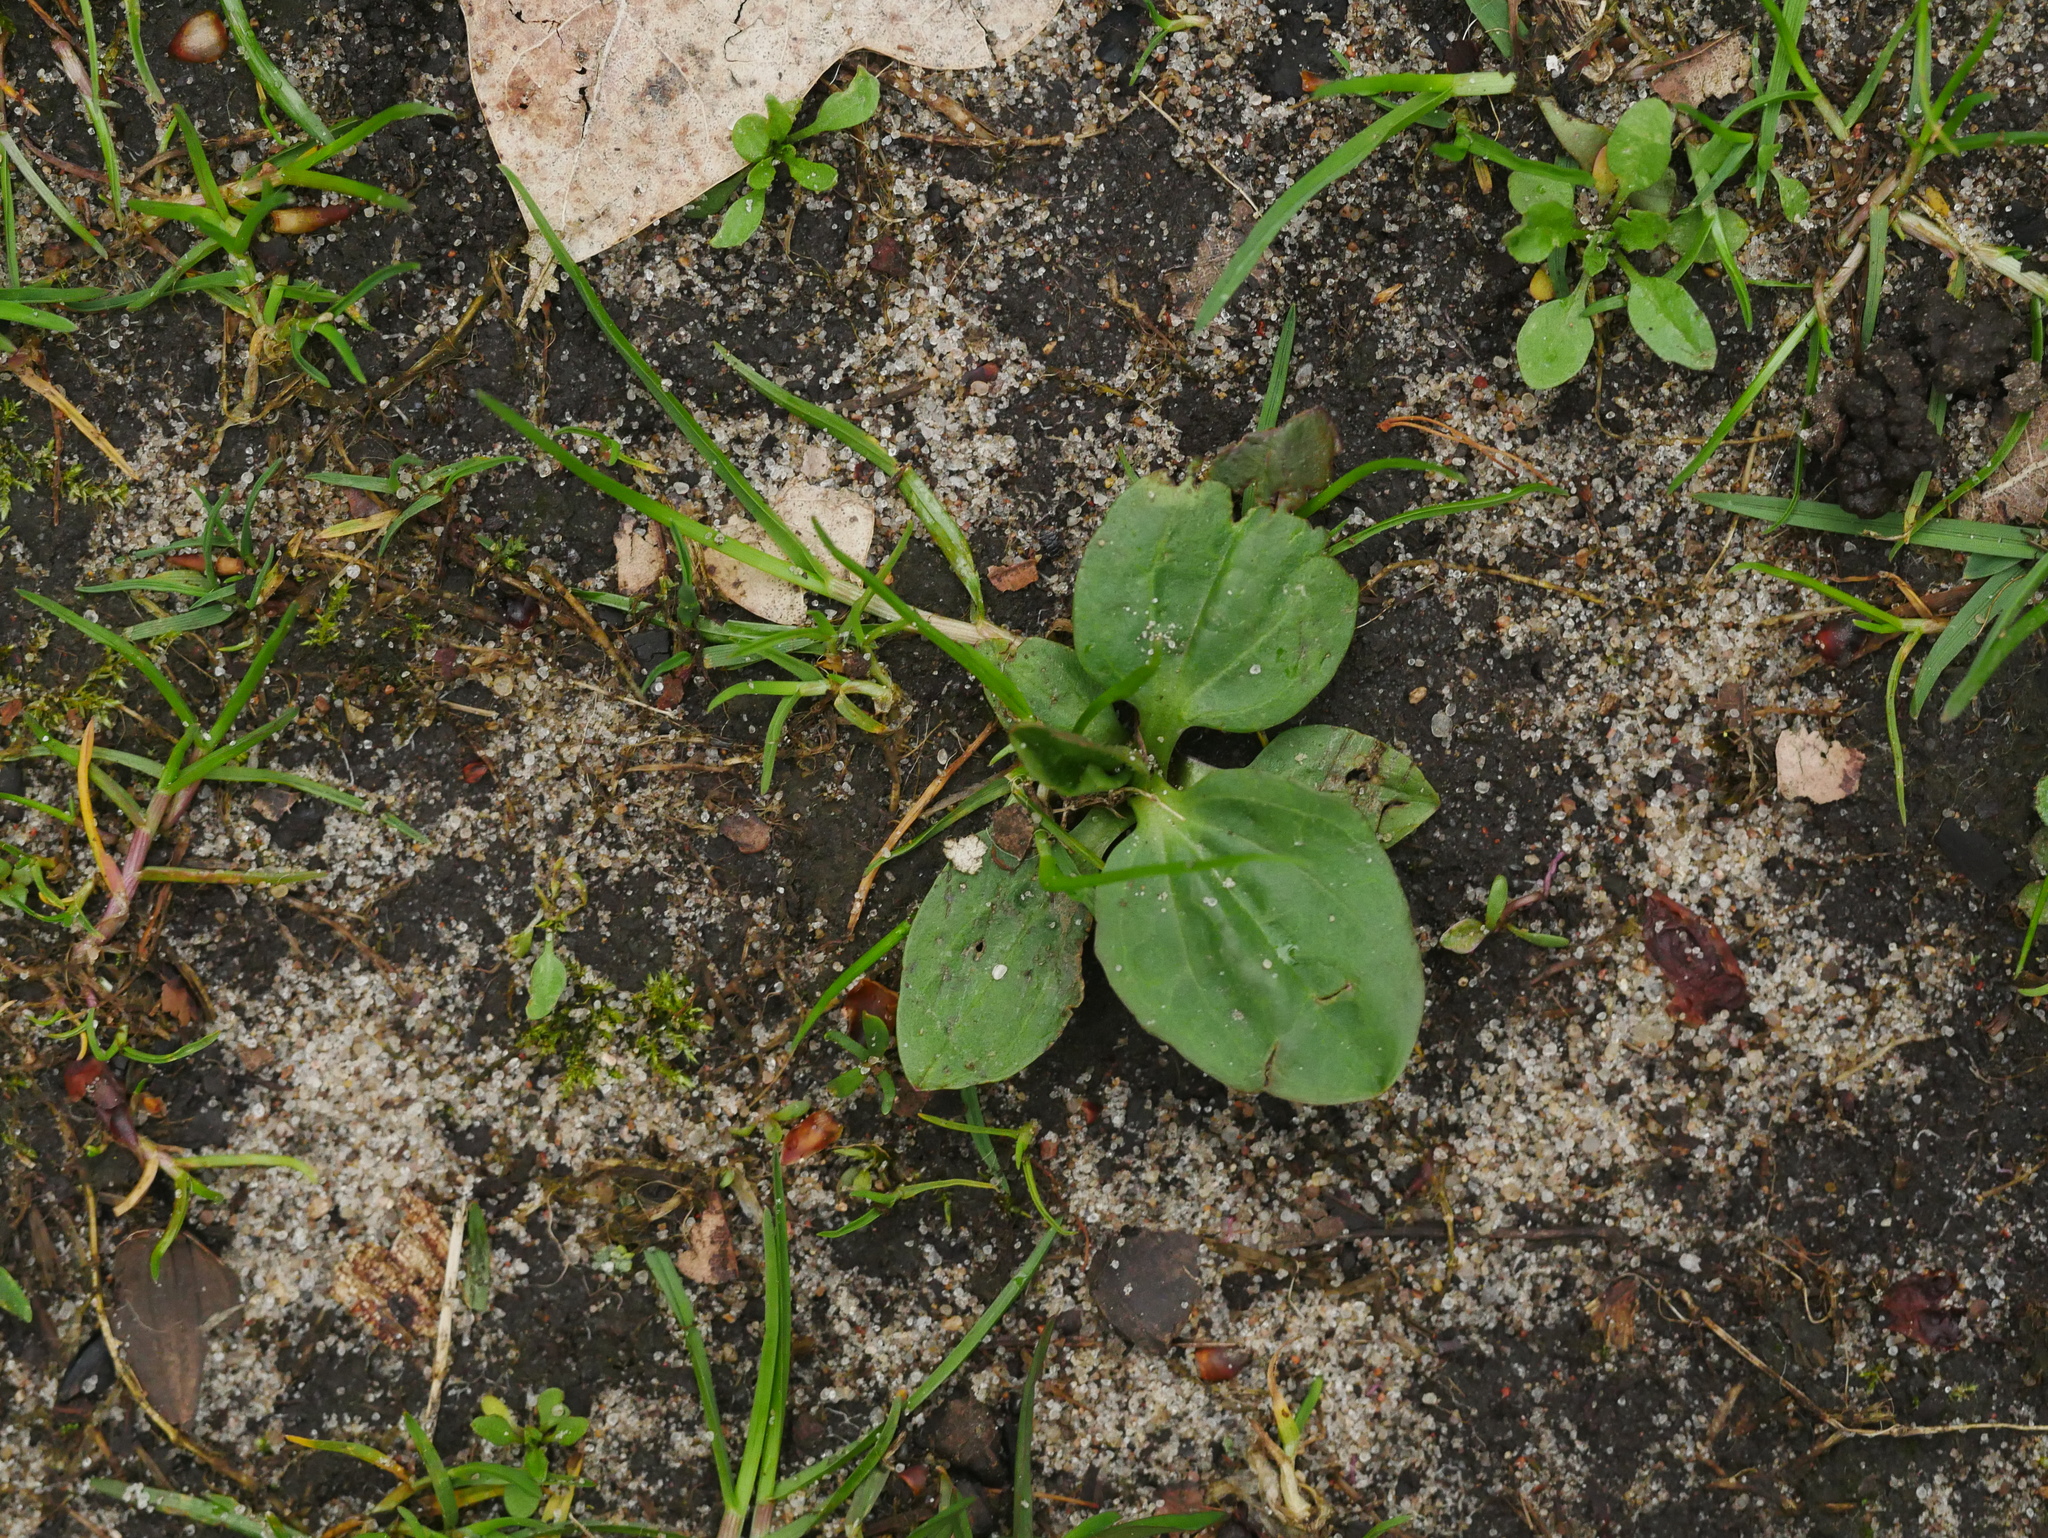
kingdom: Plantae
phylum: Tracheophyta
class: Magnoliopsida
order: Lamiales
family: Plantaginaceae
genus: Plantago
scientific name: Plantago major
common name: Common plantain
